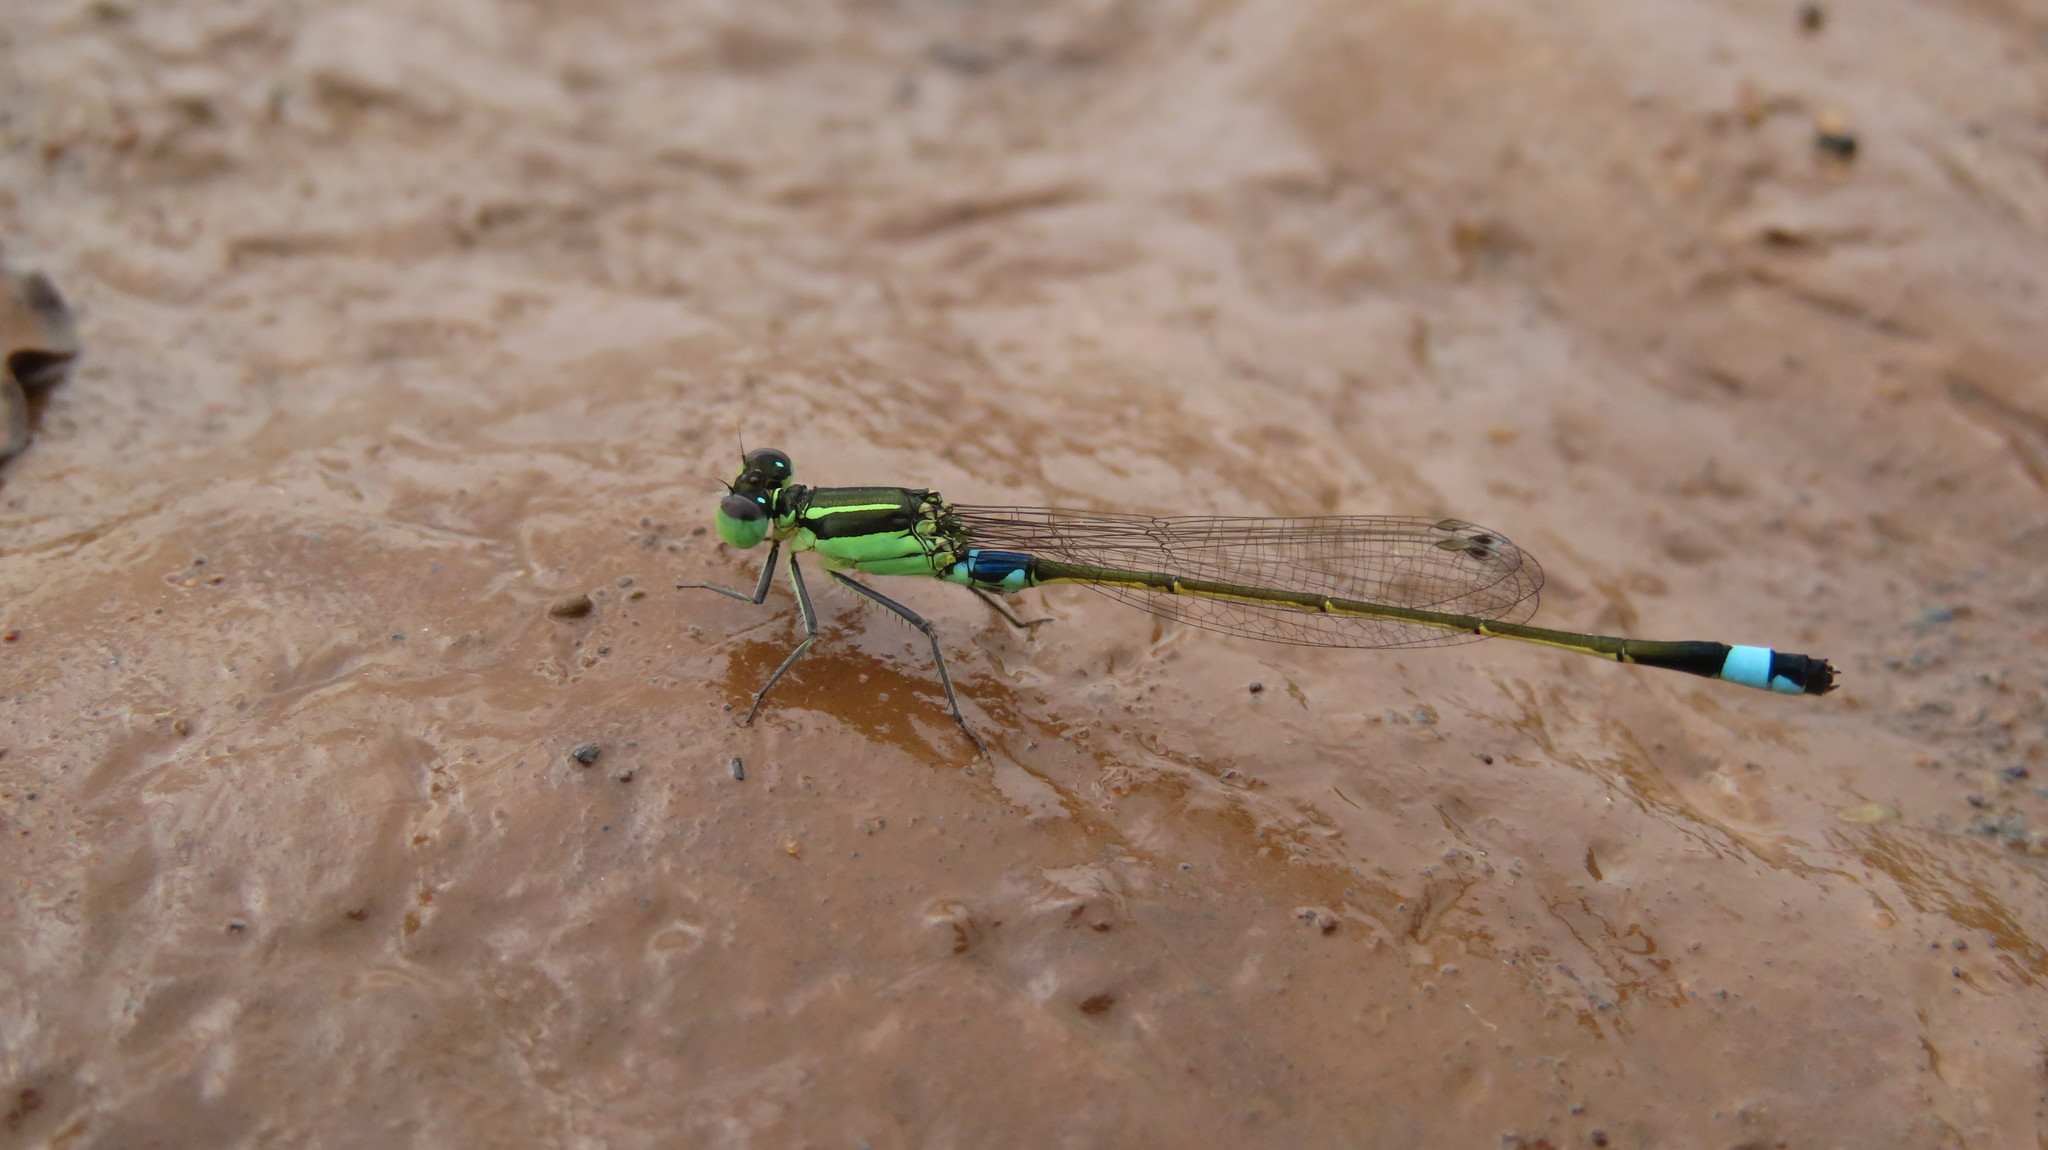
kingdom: Animalia
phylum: Arthropoda
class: Insecta
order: Odonata
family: Coenagrionidae
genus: Ischnura
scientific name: Ischnura senegalensis
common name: Tropical bluetail
